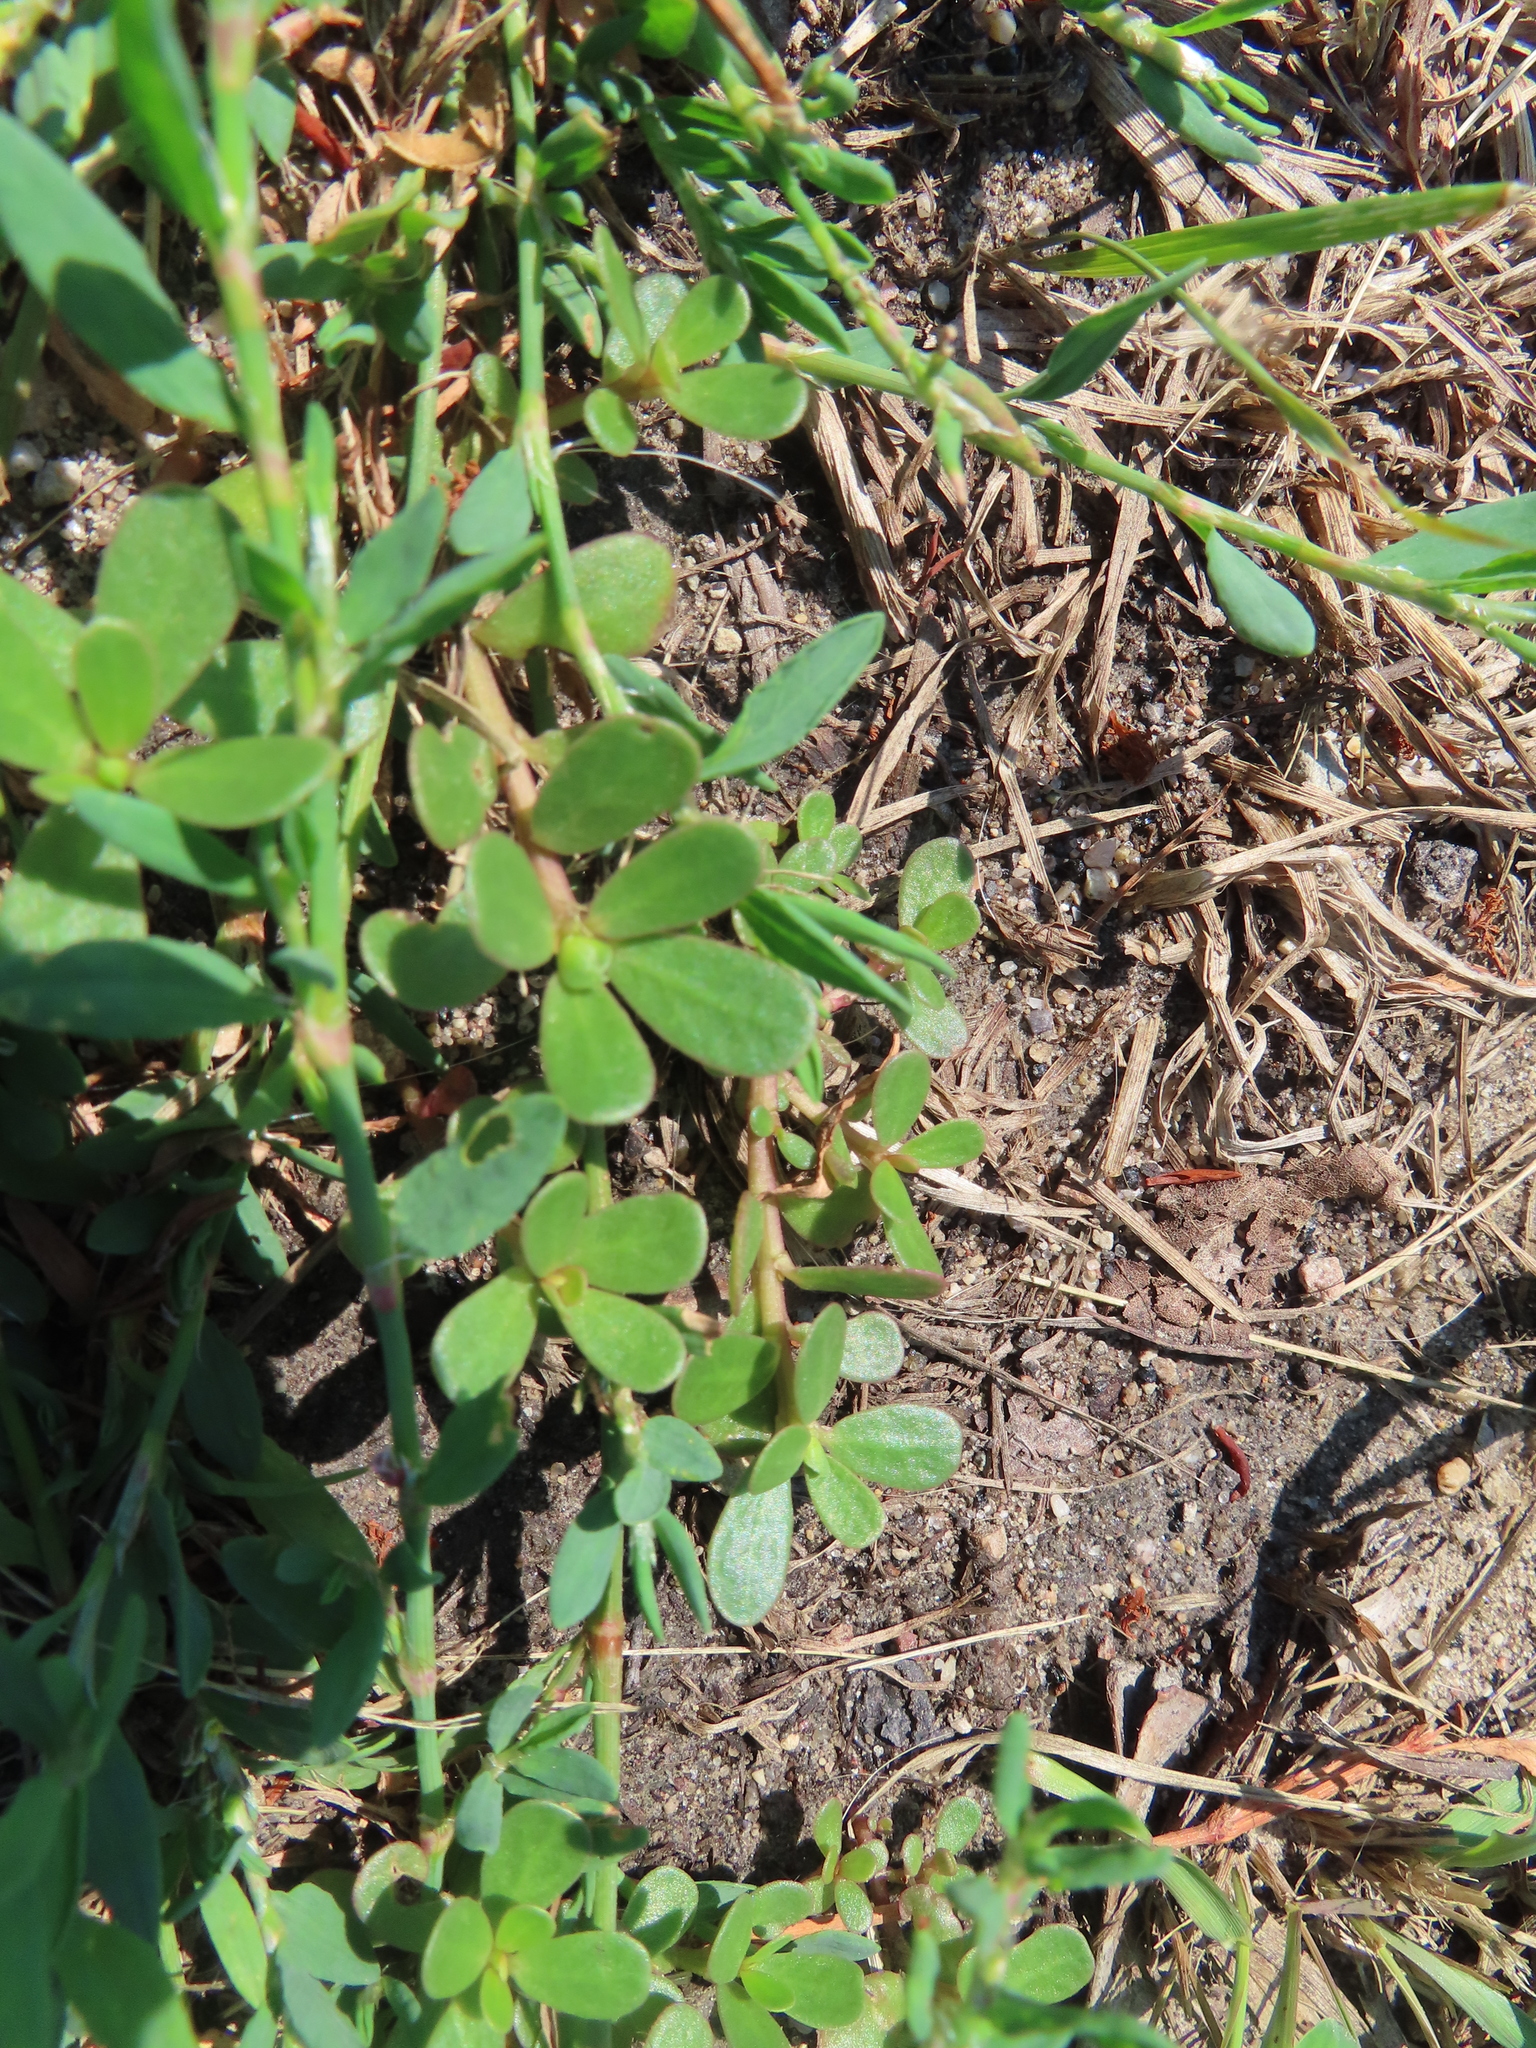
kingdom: Plantae
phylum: Tracheophyta
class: Magnoliopsida
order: Caryophyllales
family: Portulacaceae
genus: Portulaca
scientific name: Portulaca oleracea
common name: Common purslane
